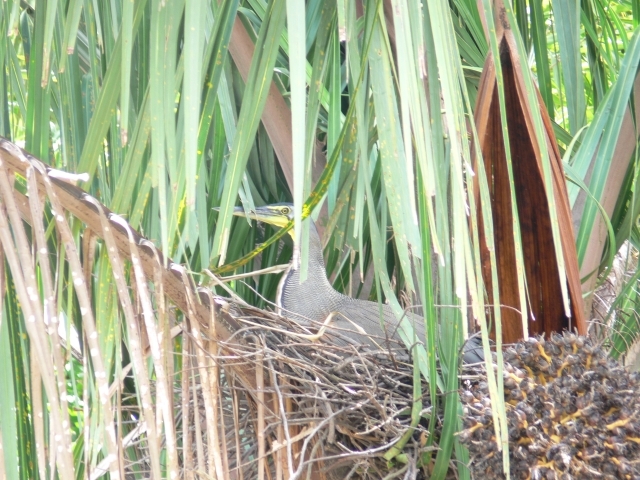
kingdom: Animalia
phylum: Chordata
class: Aves
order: Pelecaniformes
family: Ardeidae
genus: Tigrisoma
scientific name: Tigrisoma mexicanum
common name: Bare-throated tiger-heron
